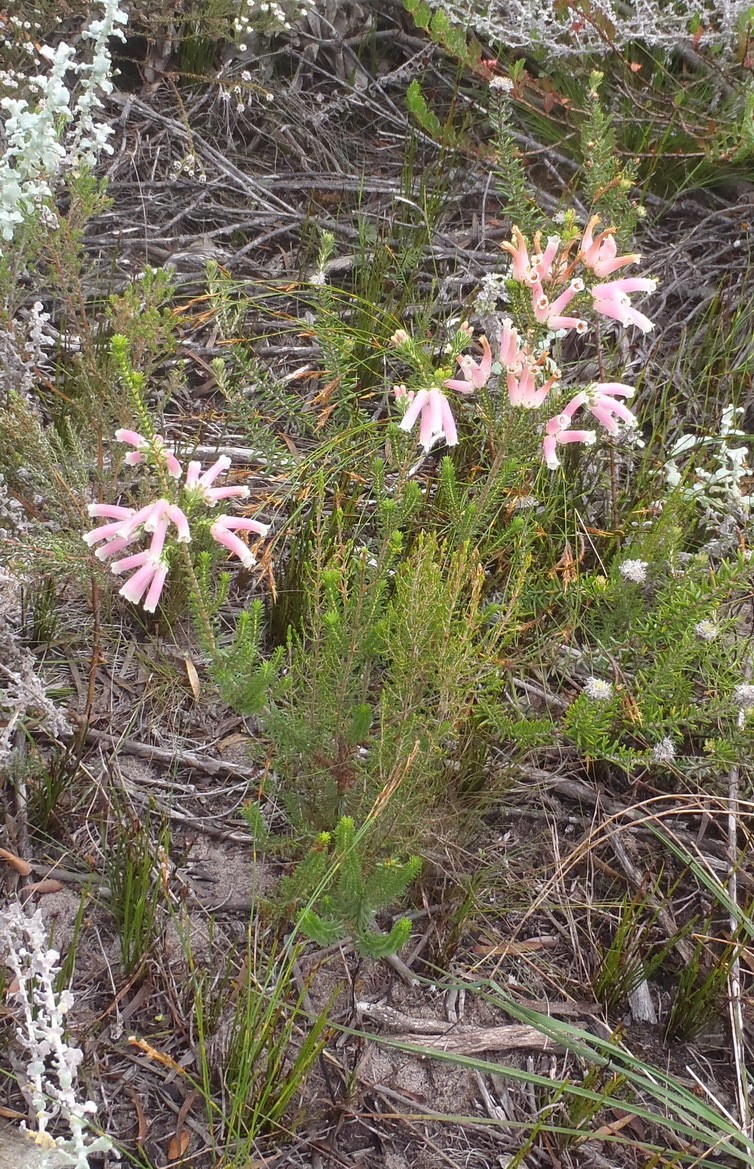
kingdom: Plantae
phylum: Tracheophyta
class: Magnoliopsida
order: Ericales
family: Ericaceae
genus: Erica
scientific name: Erica versicolor
